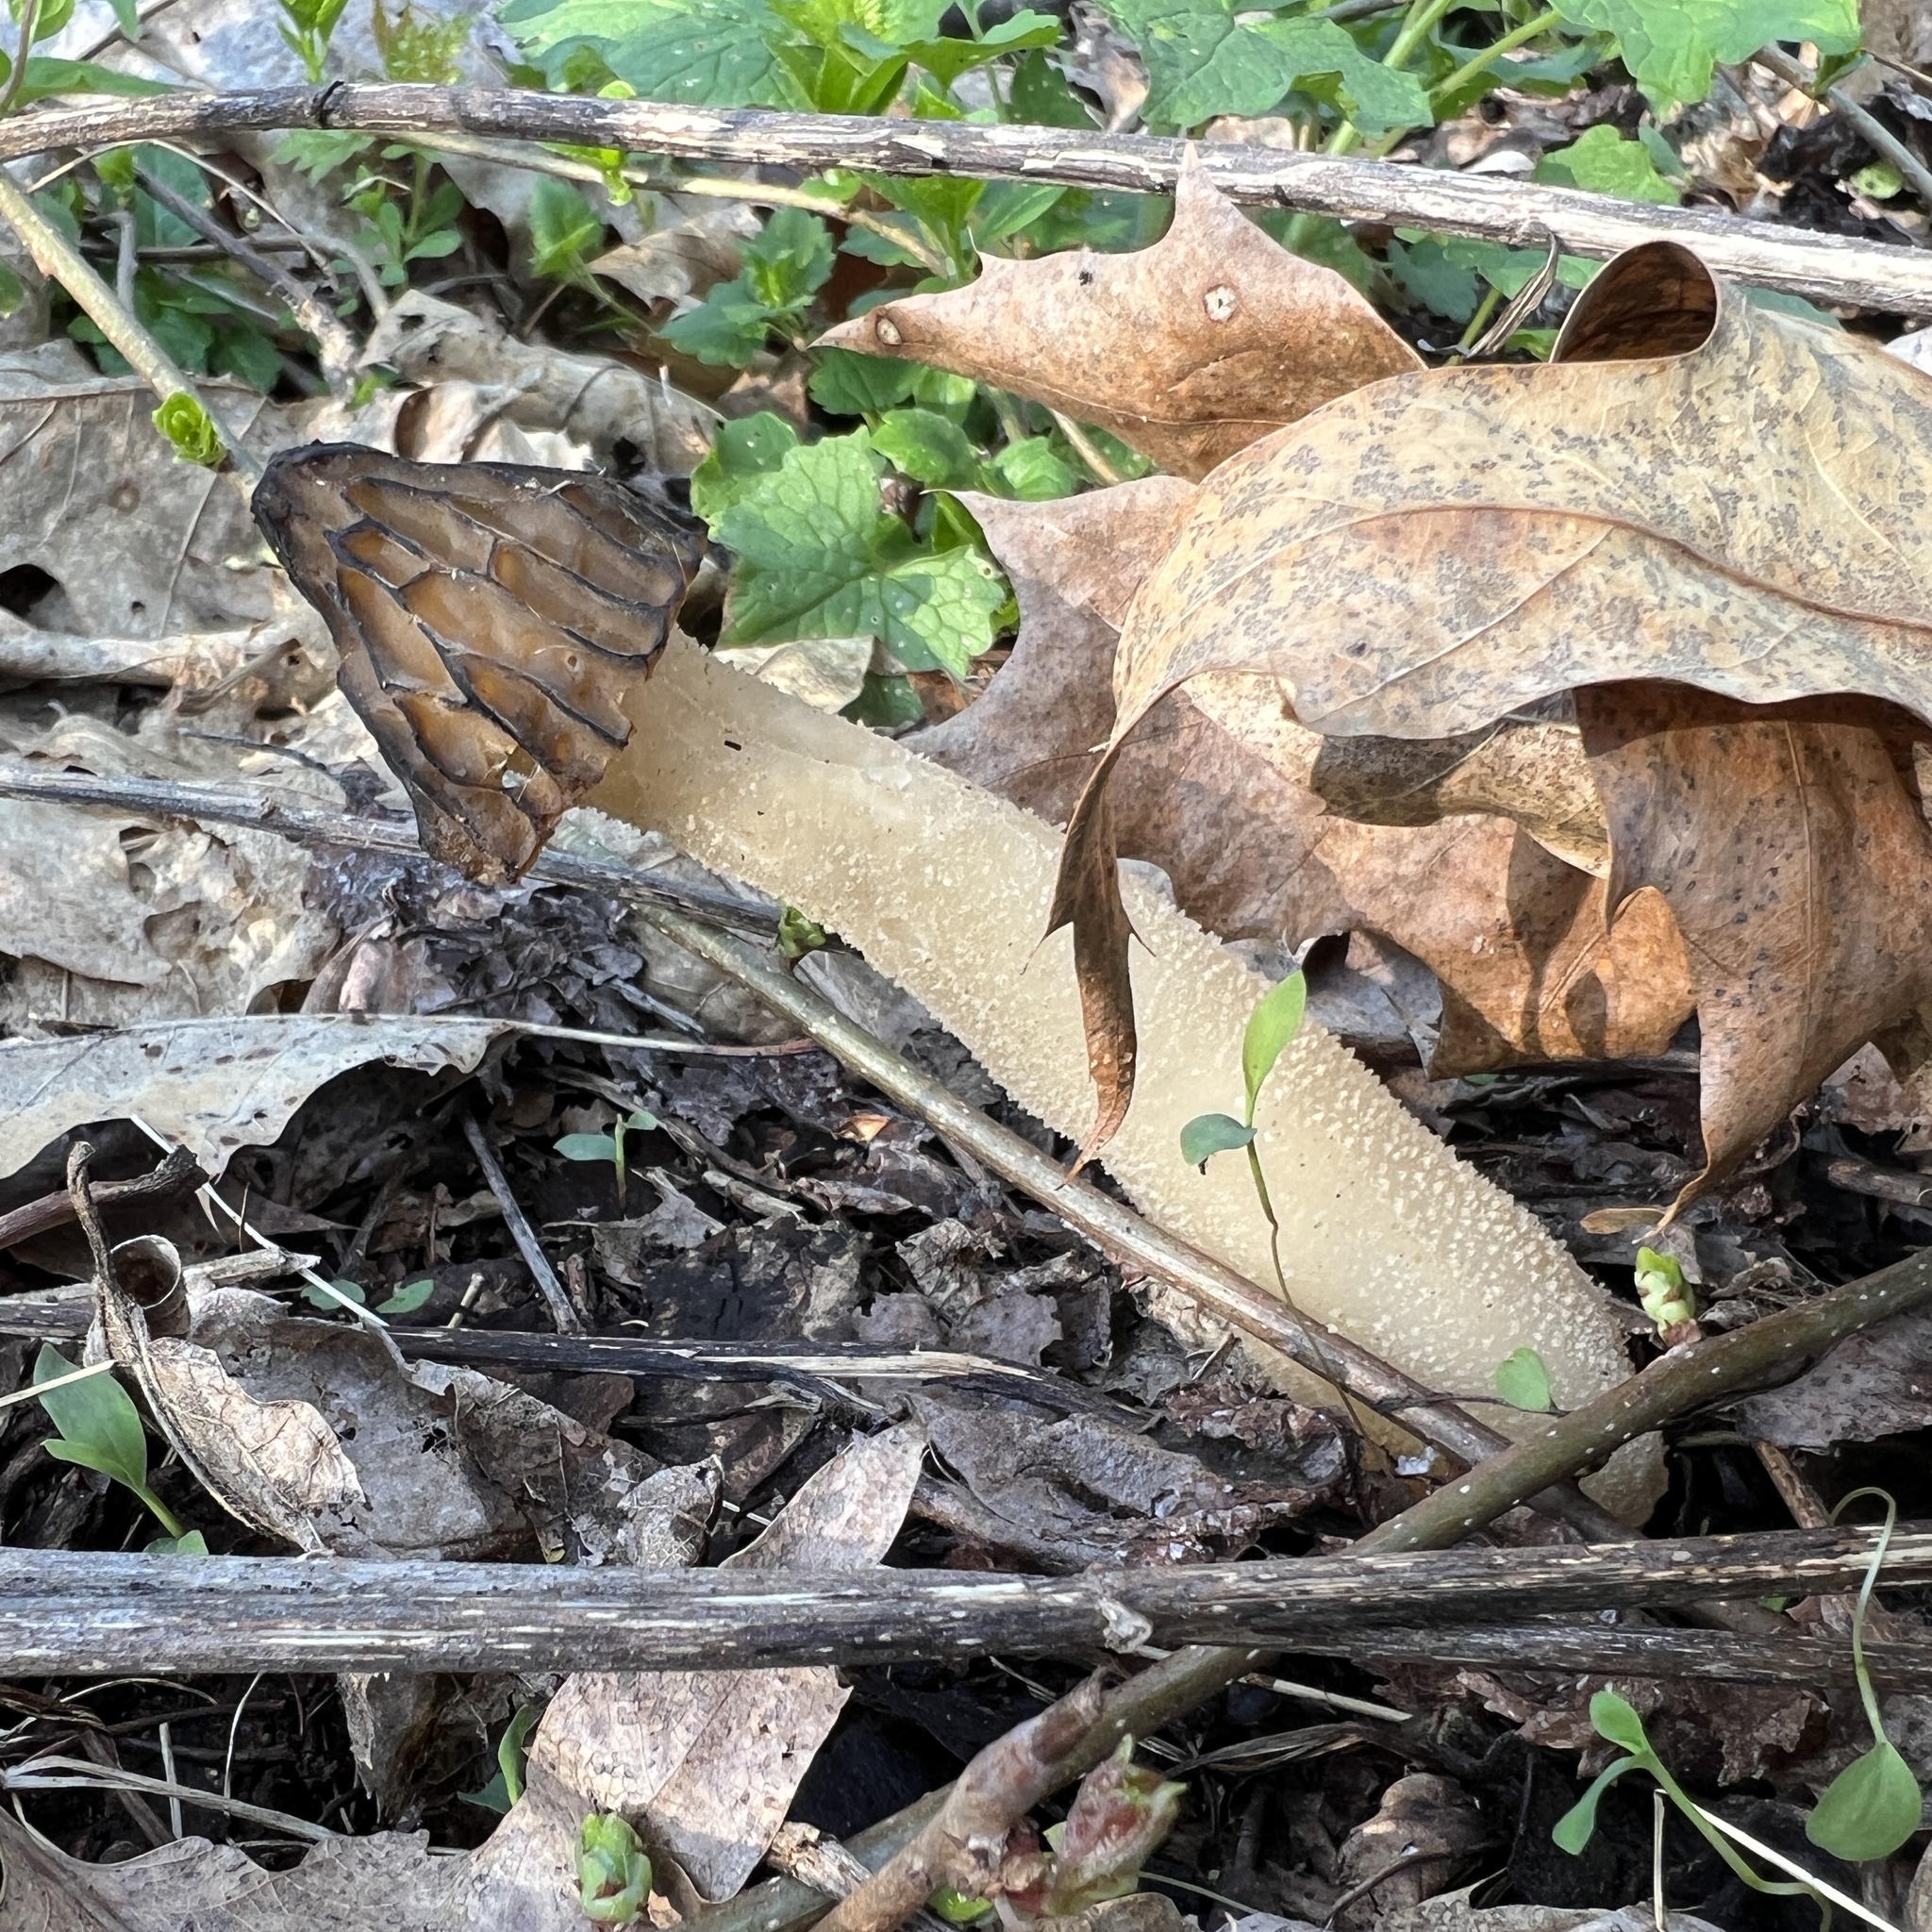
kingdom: Fungi
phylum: Ascomycota
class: Pezizomycetes
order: Pezizales
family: Morchellaceae
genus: Morchella
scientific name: Morchella punctipes
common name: Half-free morel
